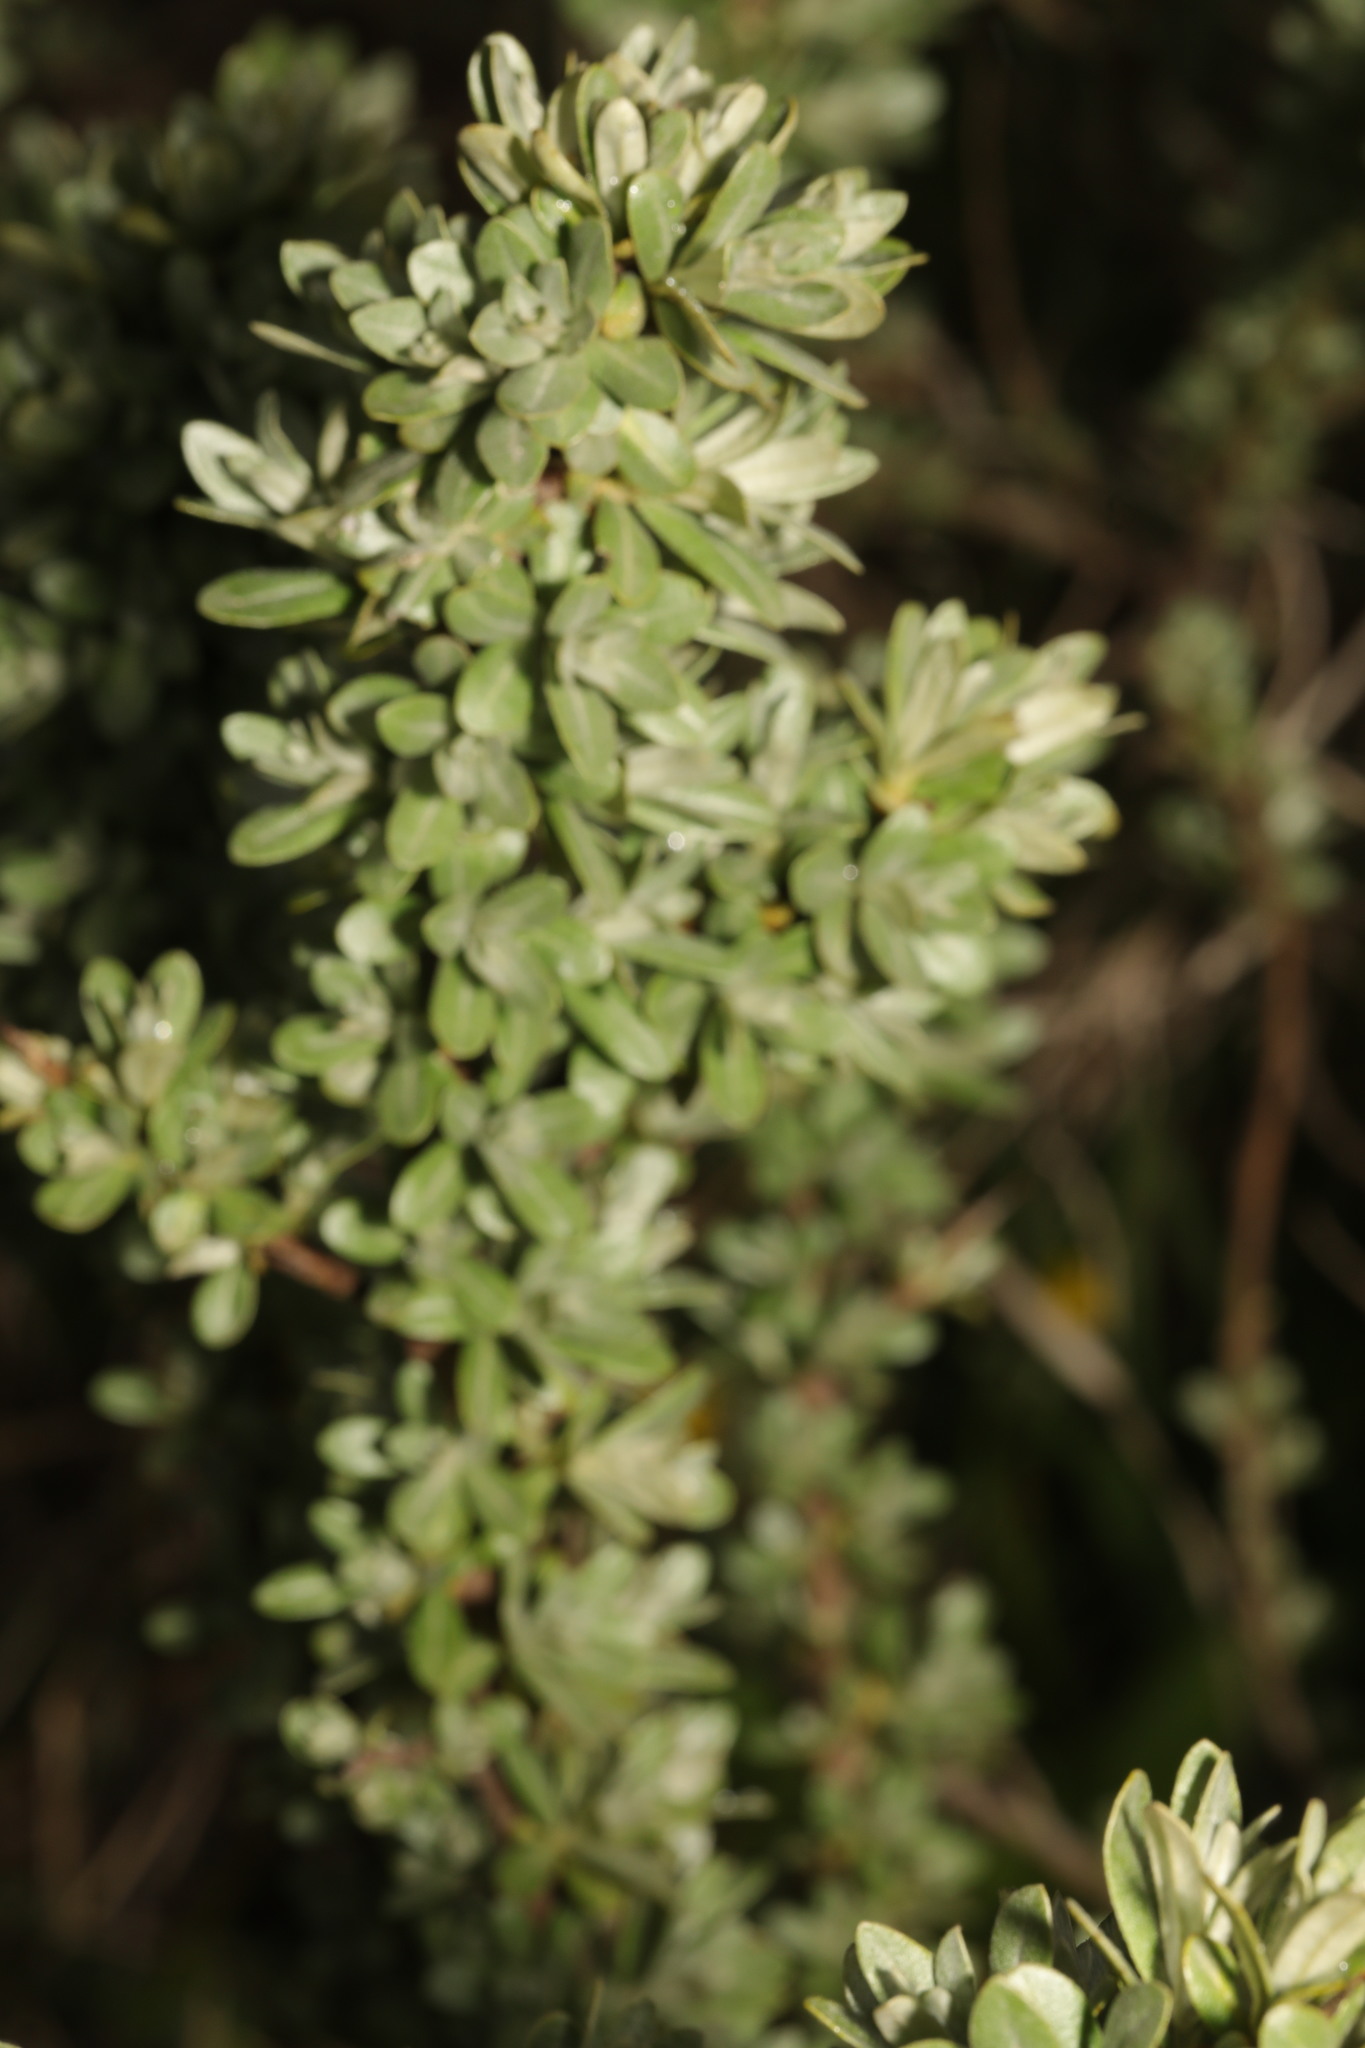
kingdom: Plantae
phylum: Tracheophyta
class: Magnoliopsida
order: Rosales
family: Elaeagnaceae
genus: Hippophae
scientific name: Hippophae rhamnoides
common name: Sea-buckthorn
